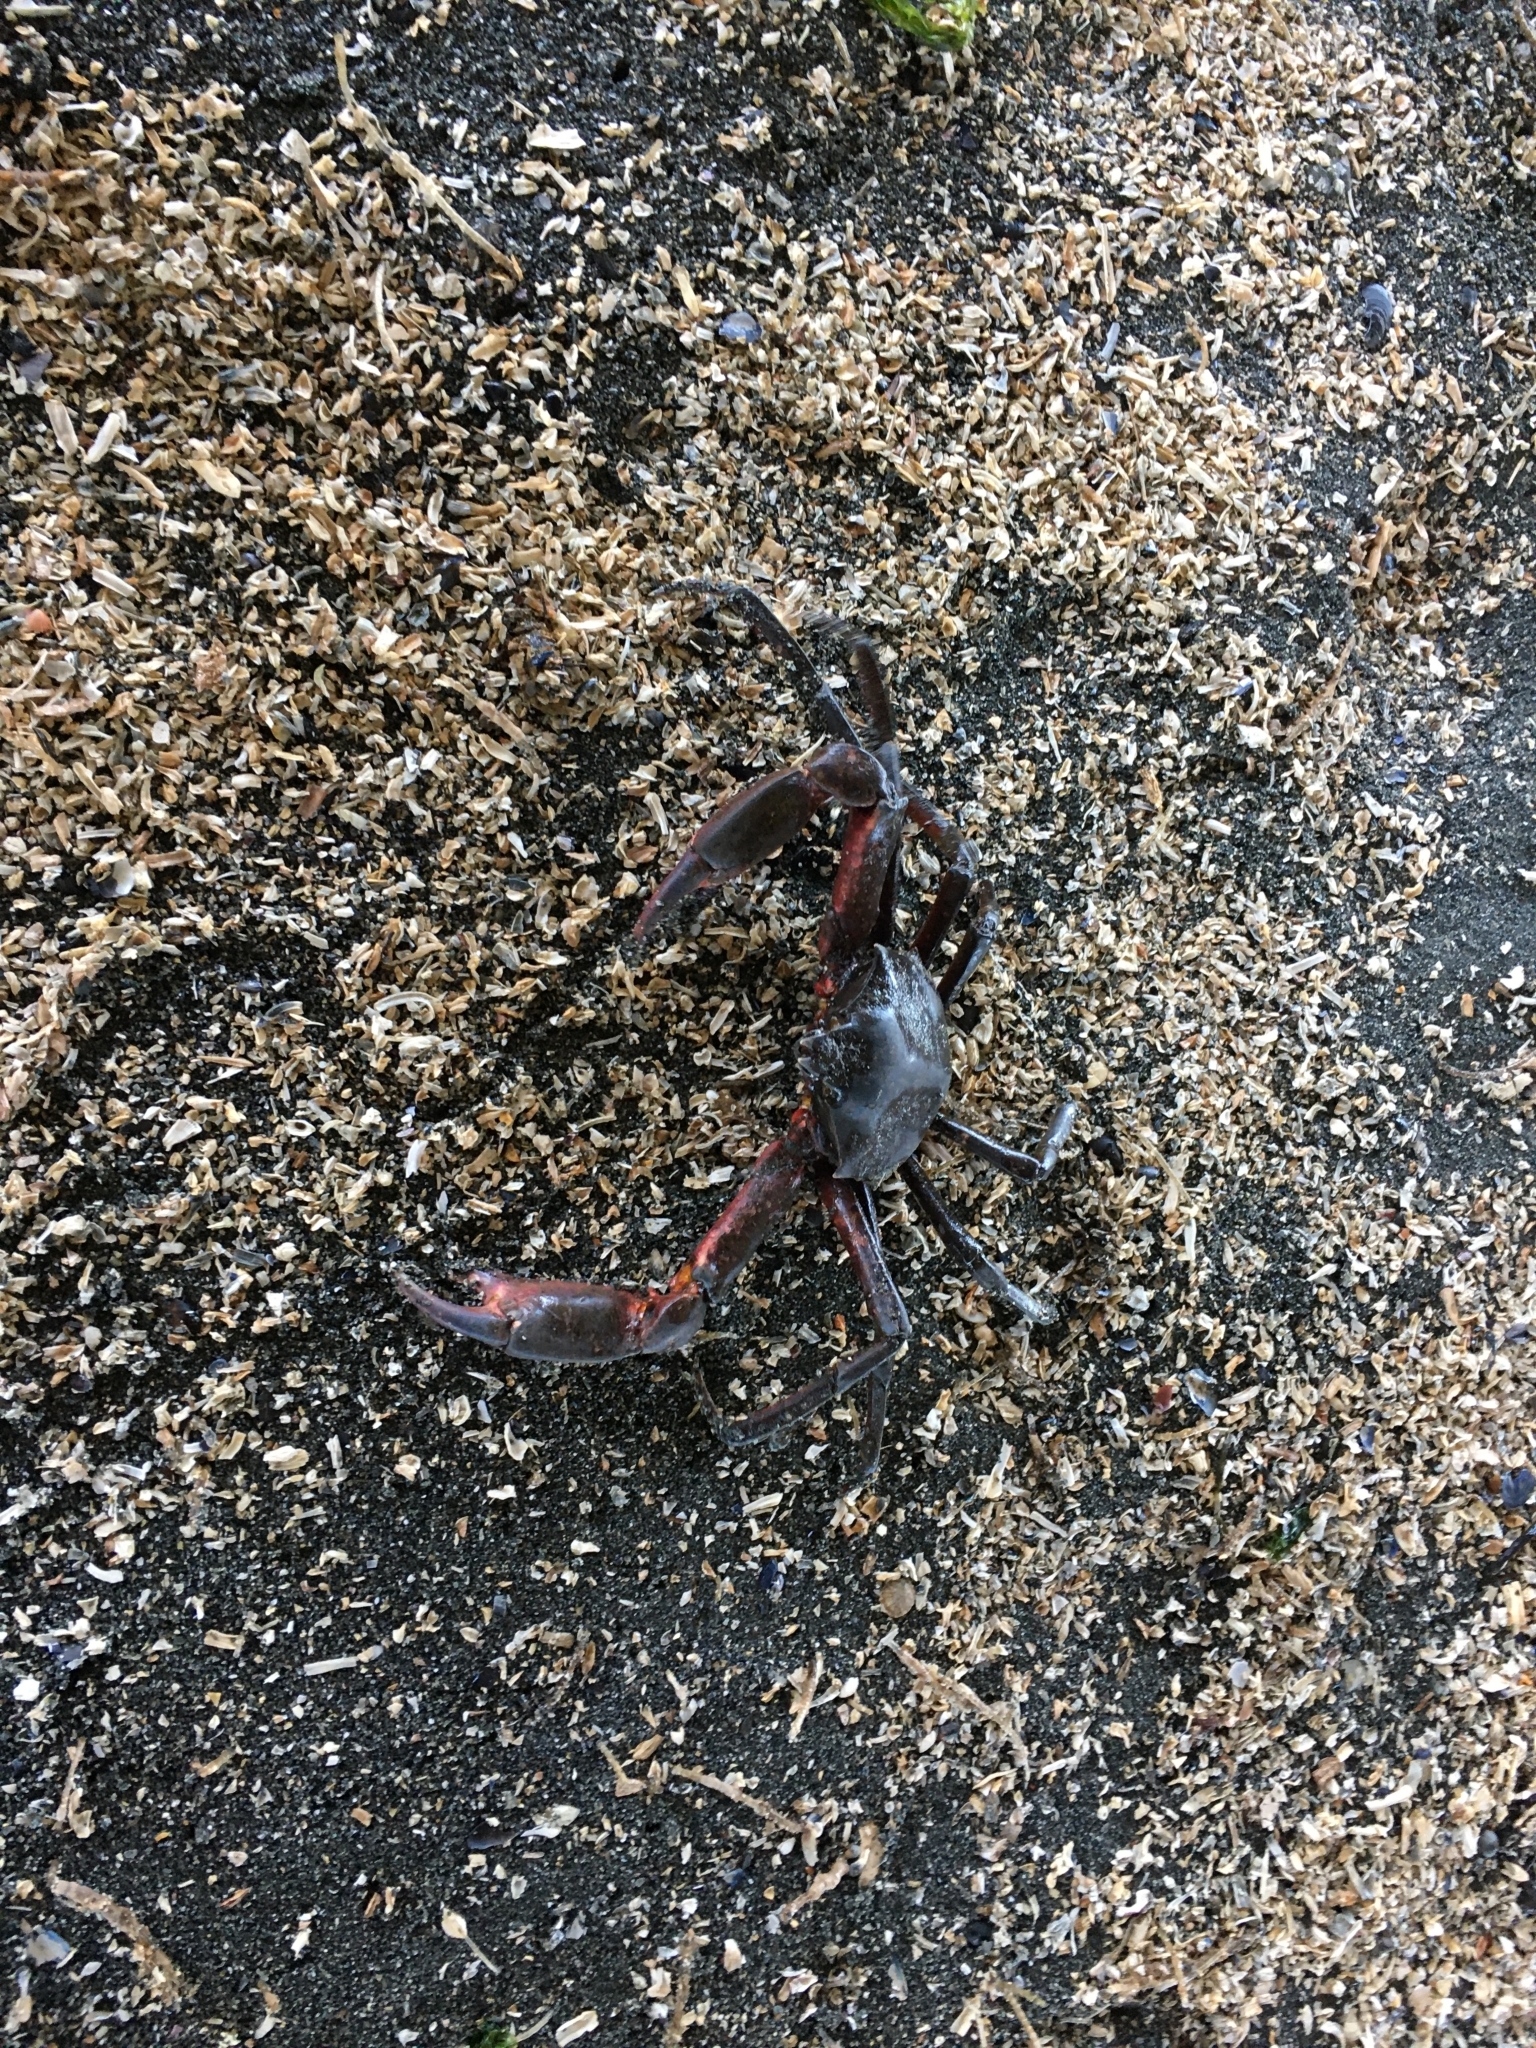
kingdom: Animalia
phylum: Arthropoda
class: Malacostraca
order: Decapoda
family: Epialtidae
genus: Pugettia
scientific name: Pugettia producta
